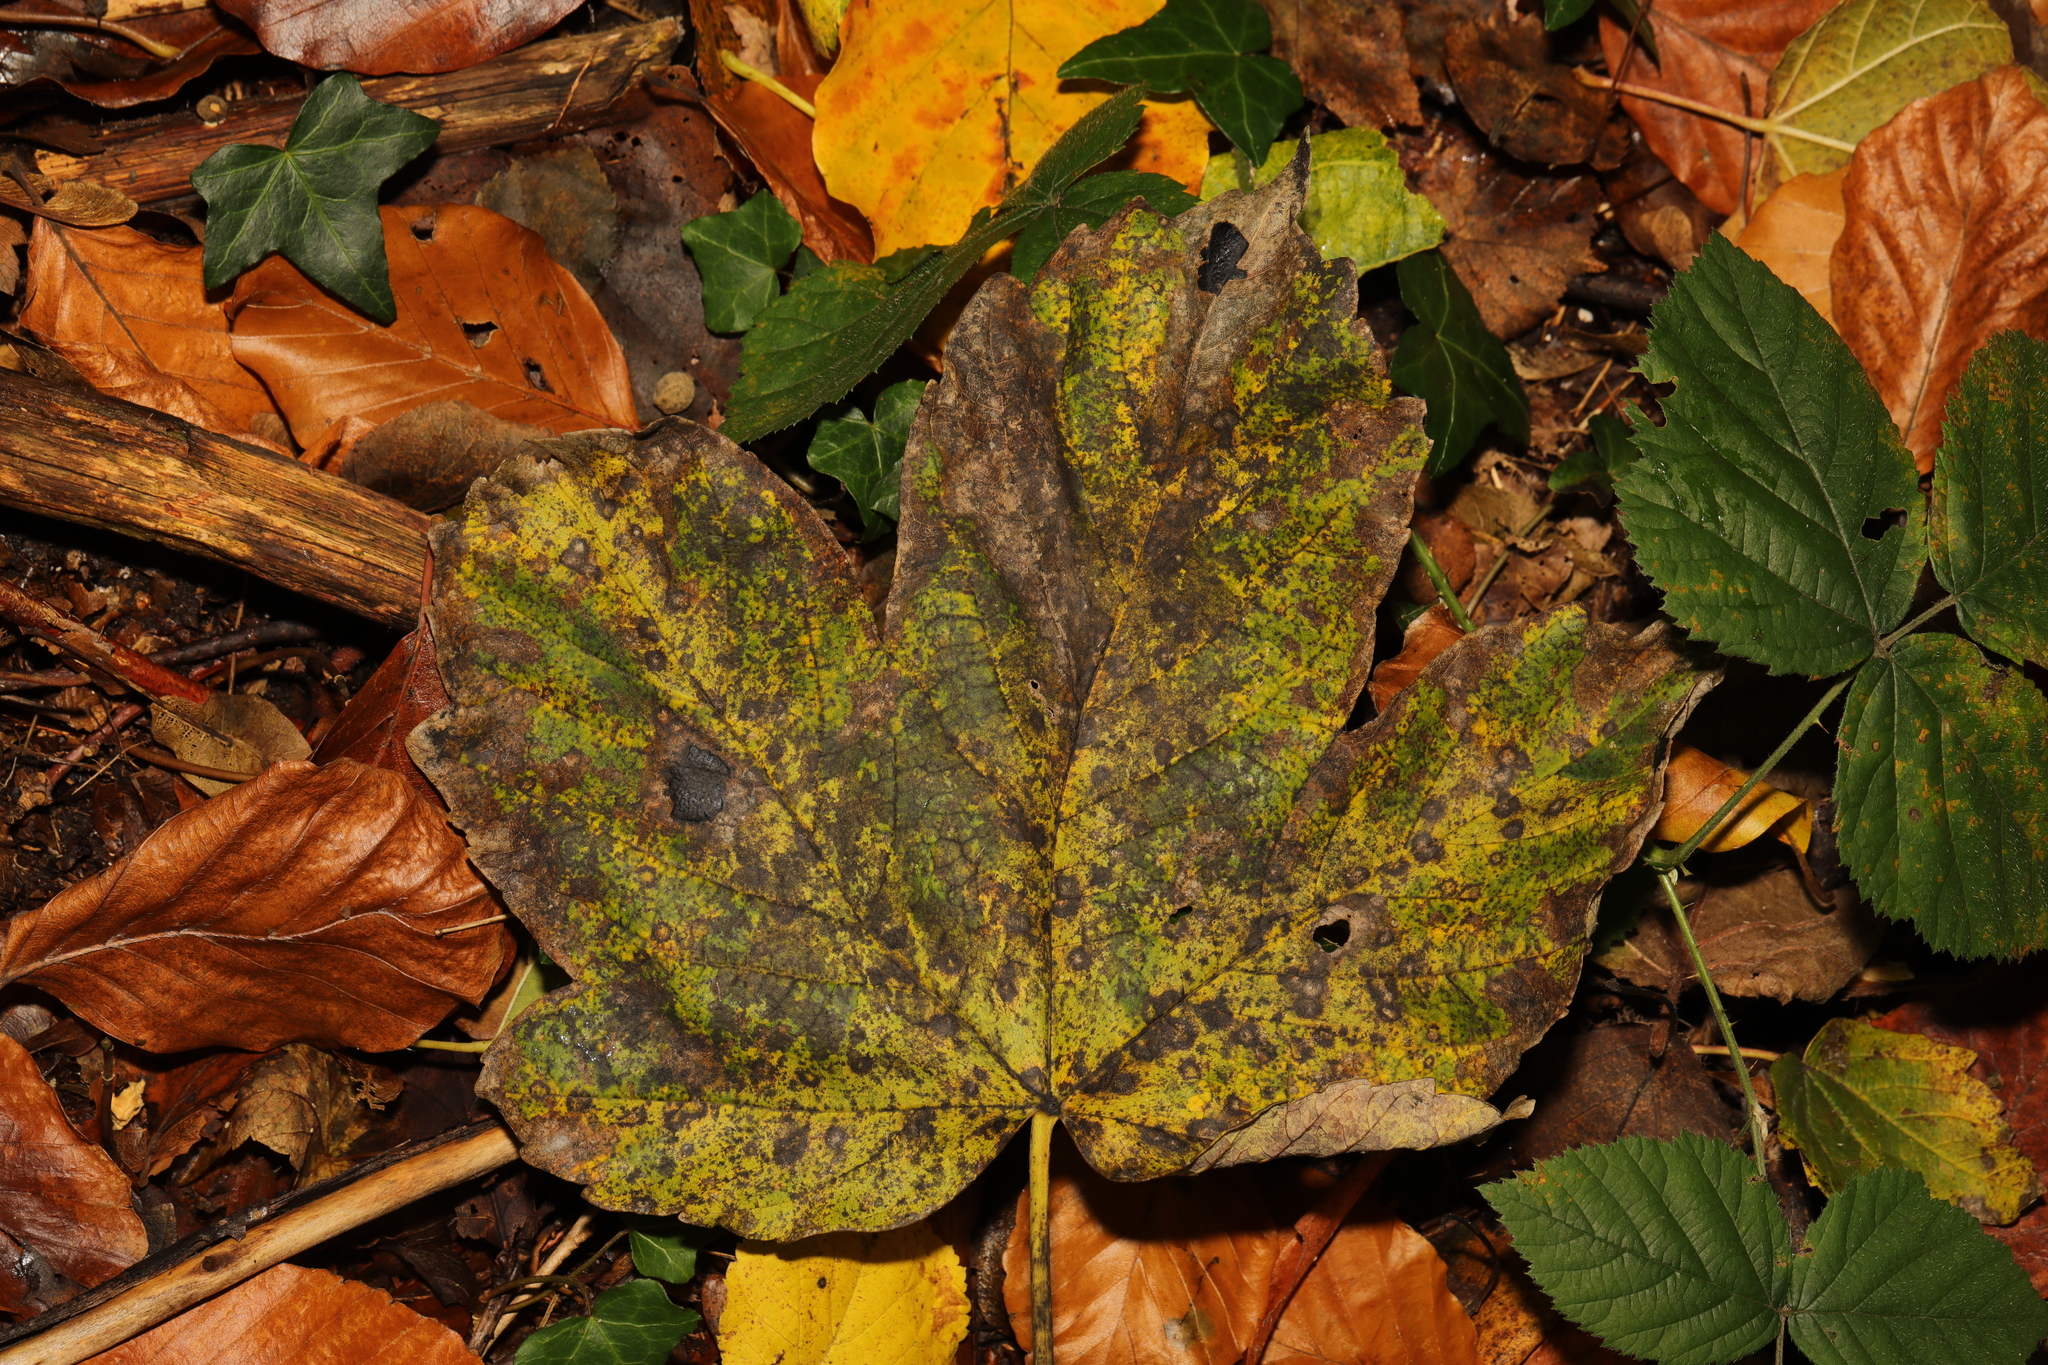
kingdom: Fungi
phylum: Ascomycota
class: Leotiomycetes
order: Rhytismatales
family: Rhytismataceae
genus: Rhytisma
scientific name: Rhytisma acerinum
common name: European tar spot
